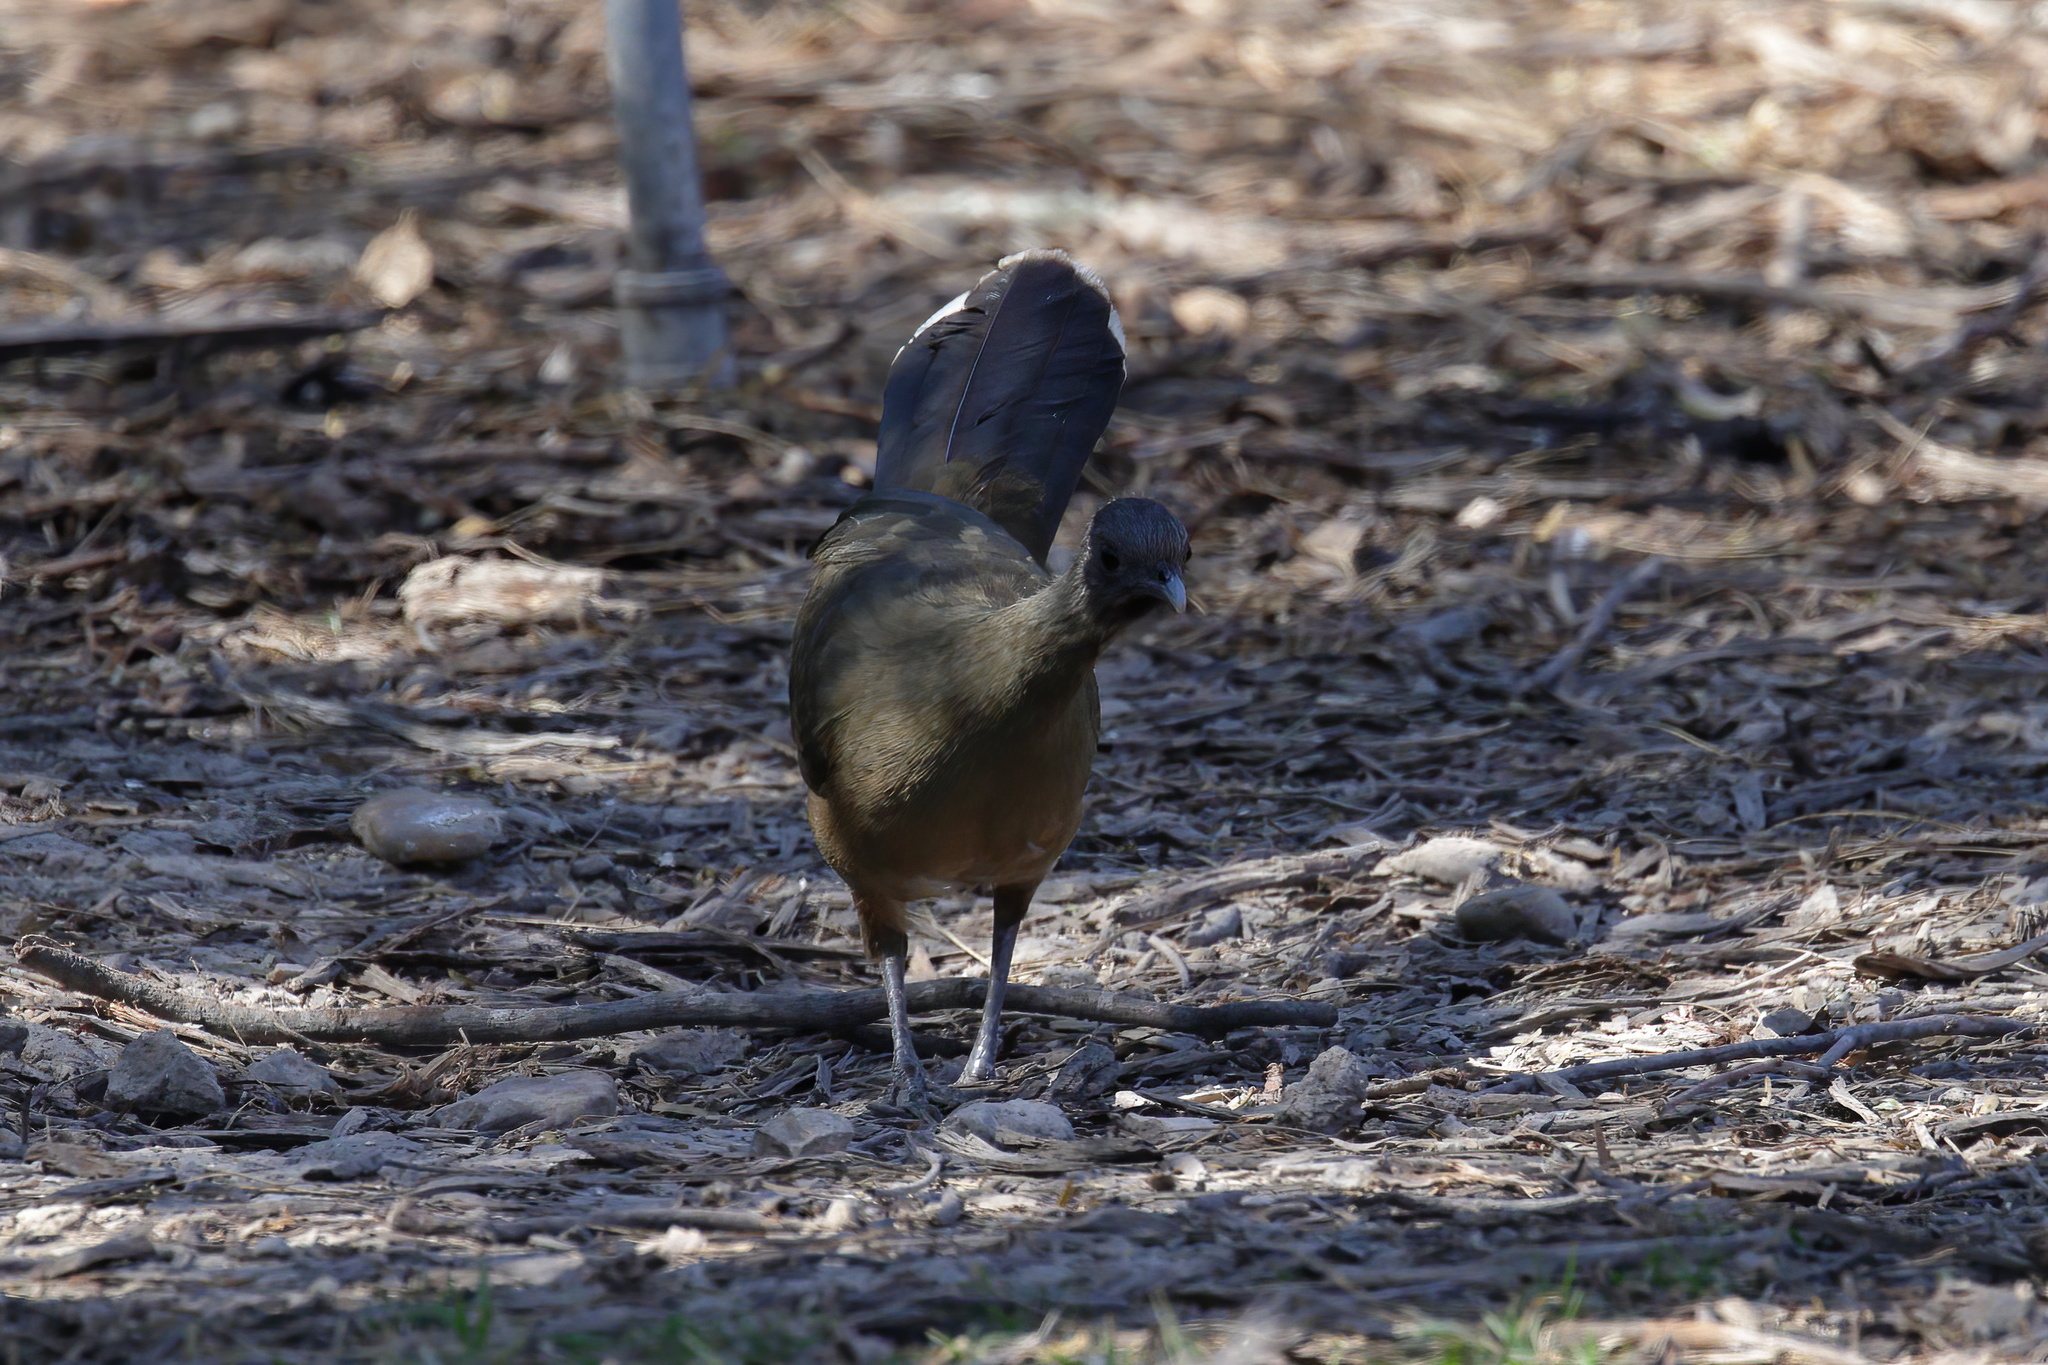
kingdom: Animalia
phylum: Chordata
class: Aves
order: Galliformes
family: Cracidae
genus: Ortalis
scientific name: Ortalis vetula
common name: Plain chachalaca
